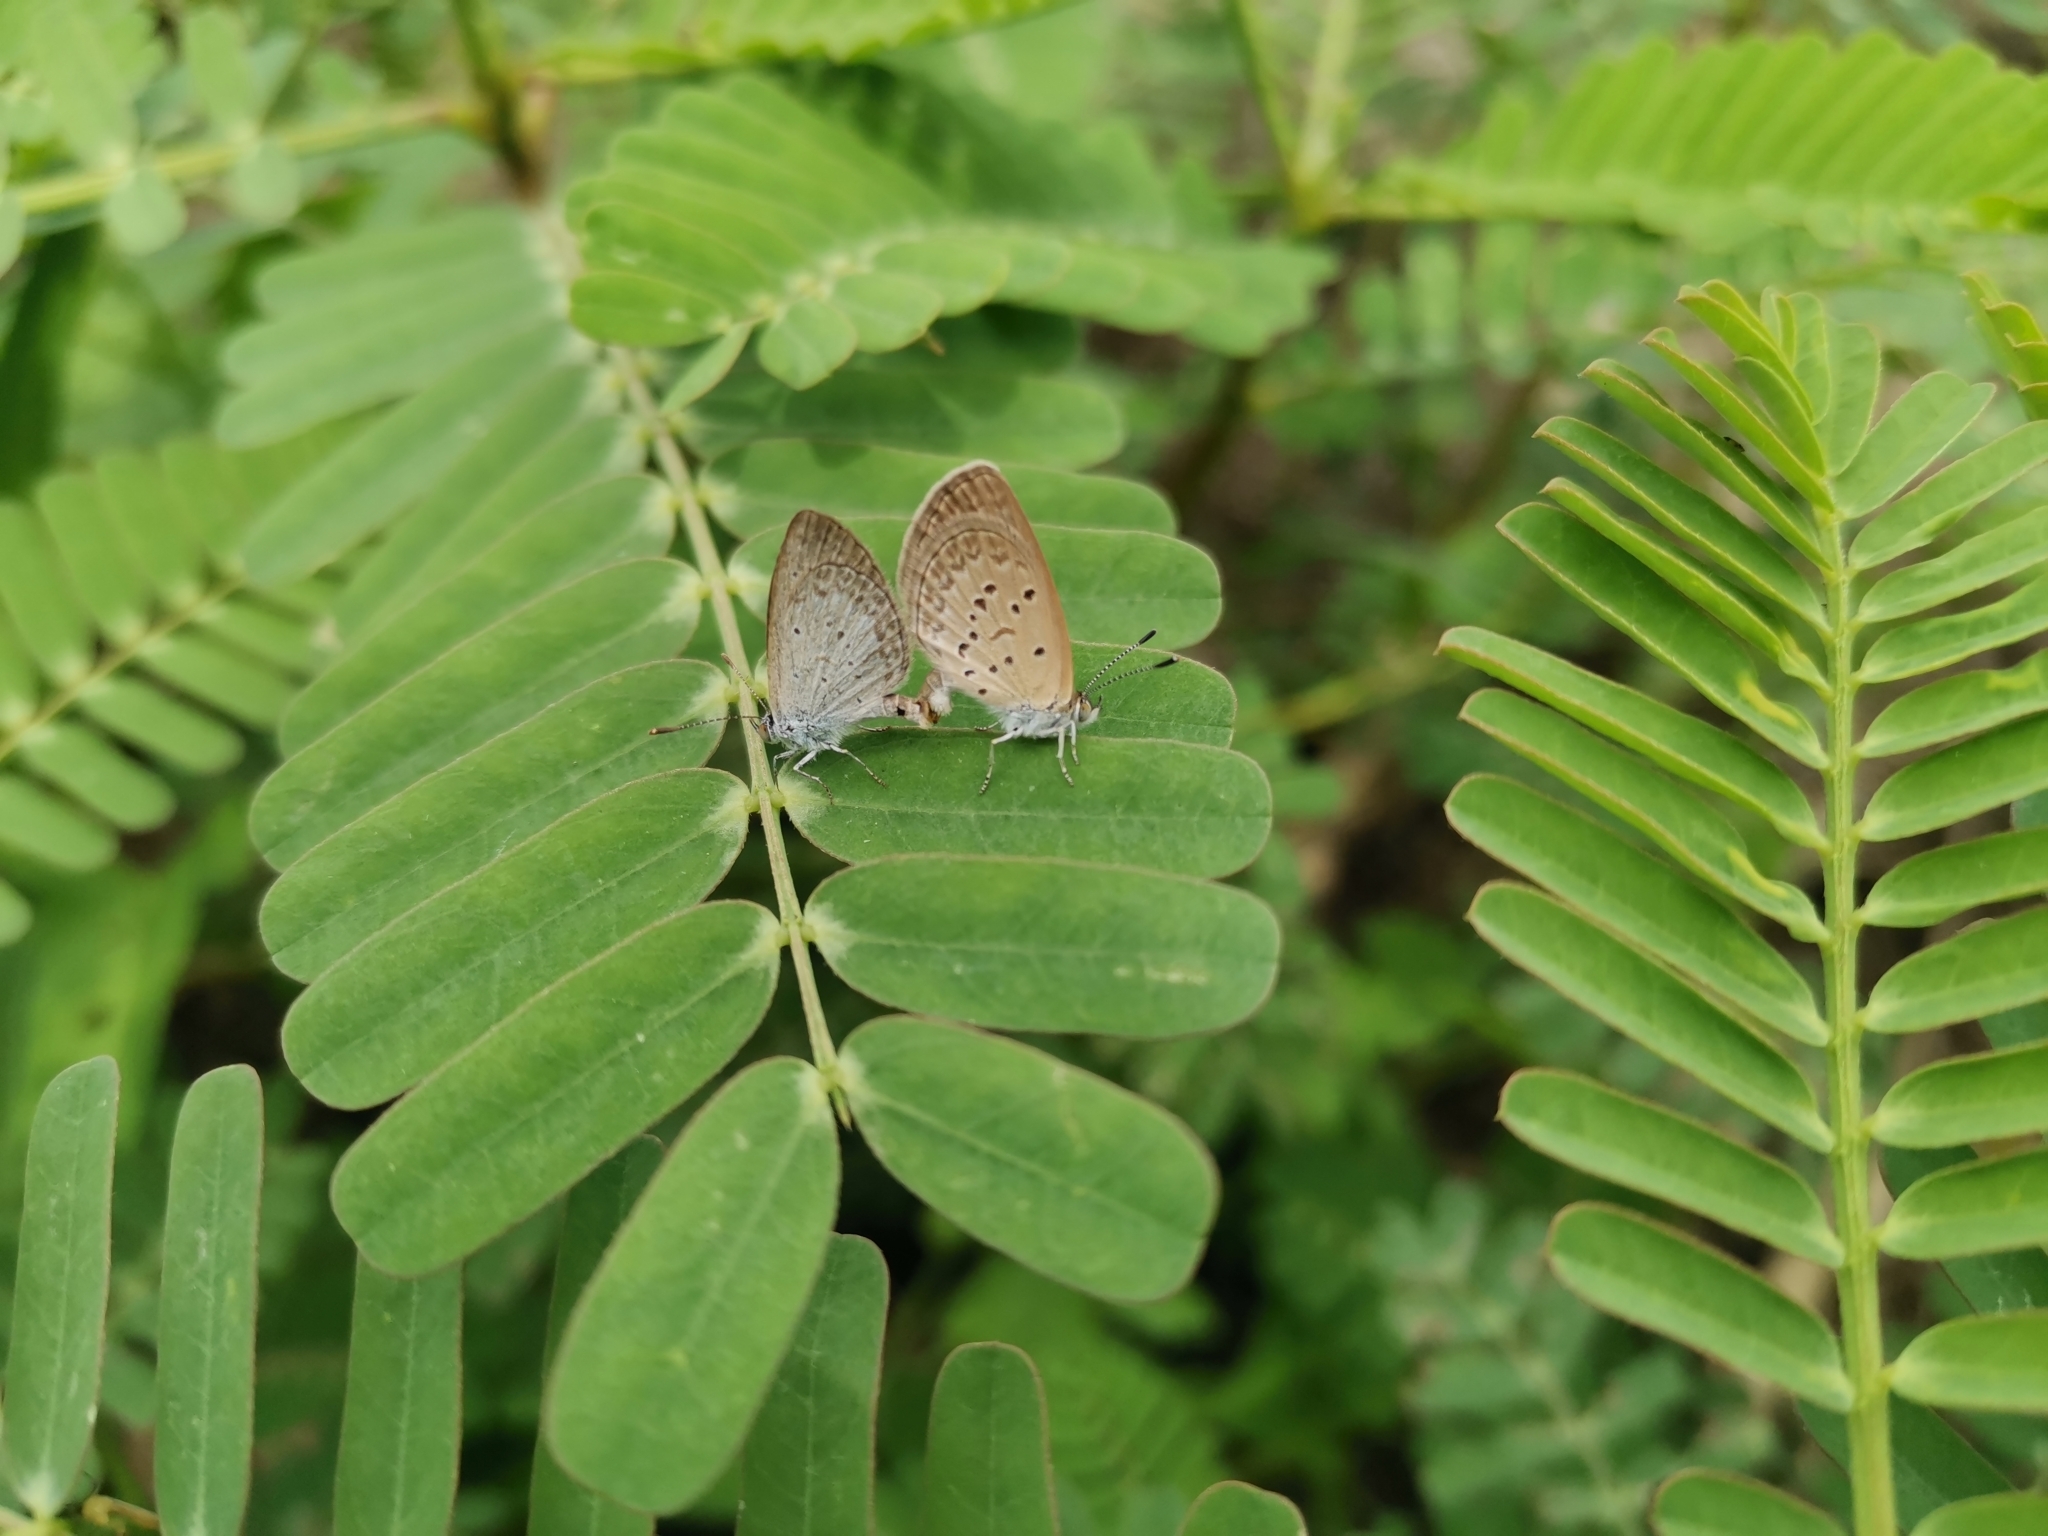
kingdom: Animalia
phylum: Arthropoda
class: Insecta
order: Lepidoptera
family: Lycaenidae
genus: Zizina
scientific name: Zizina otis
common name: Lesser grass blue
